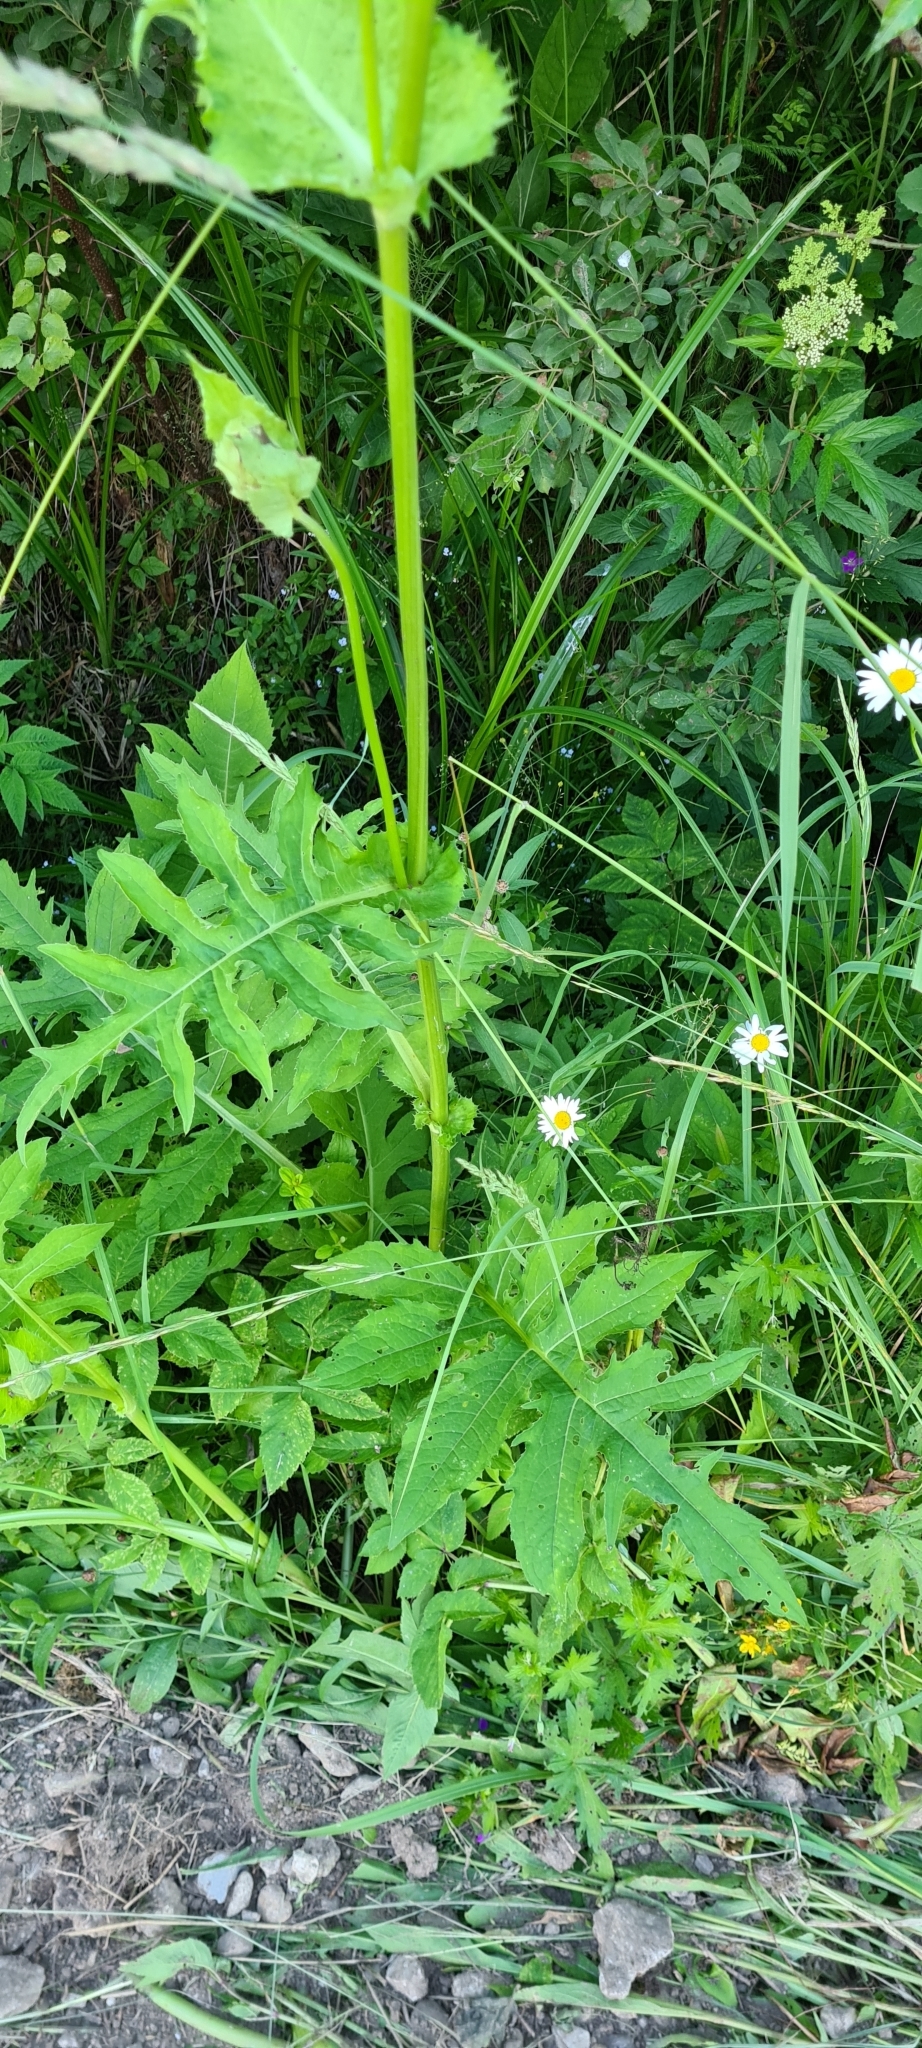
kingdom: Plantae
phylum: Tracheophyta
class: Magnoliopsida
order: Asterales
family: Asteraceae
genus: Cirsium
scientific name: Cirsium oleraceum
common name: Cabbage thistle
